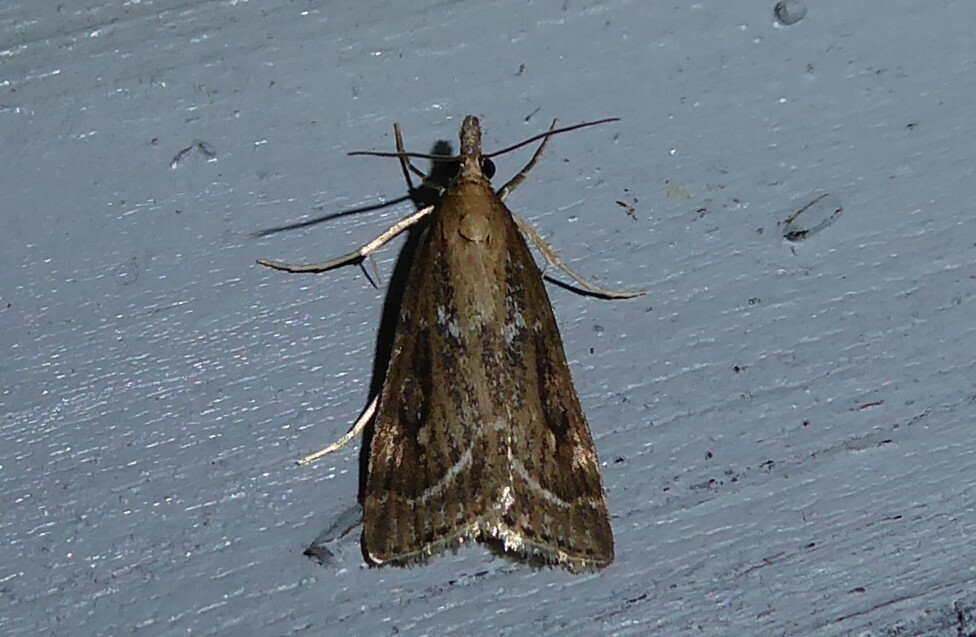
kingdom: Animalia
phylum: Arthropoda
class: Insecta
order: Lepidoptera
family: Crambidae
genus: Eudonia
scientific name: Eudonia octophora
